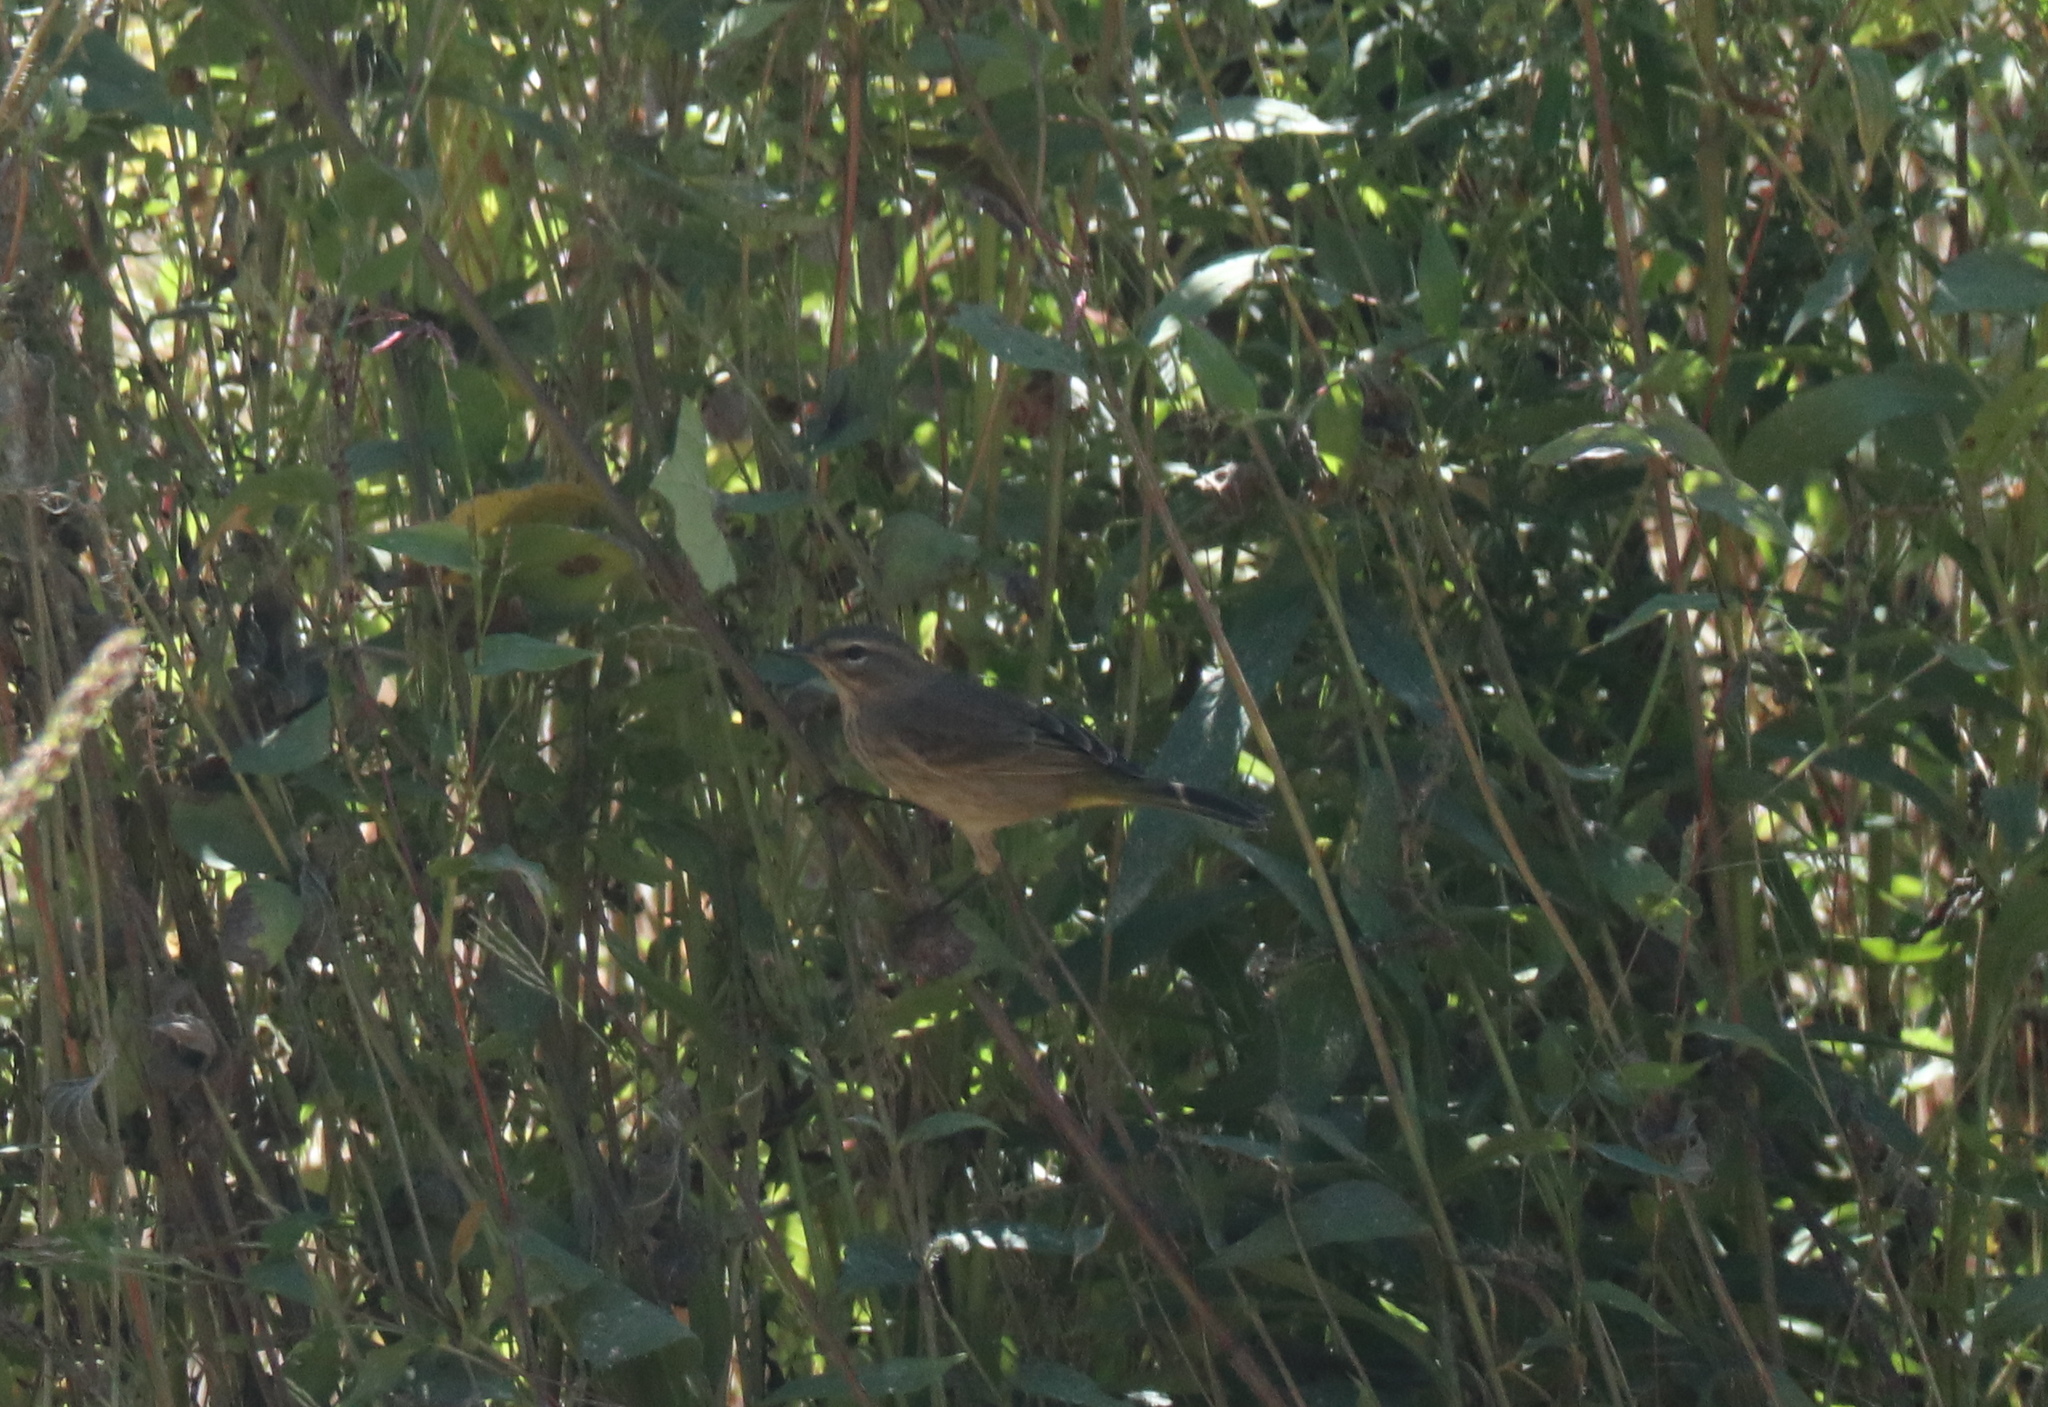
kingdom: Animalia
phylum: Chordata
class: Aves
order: Passeriformes
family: Parulidae
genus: Setophaga
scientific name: Setophaga palmarum
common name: Palm warbler
